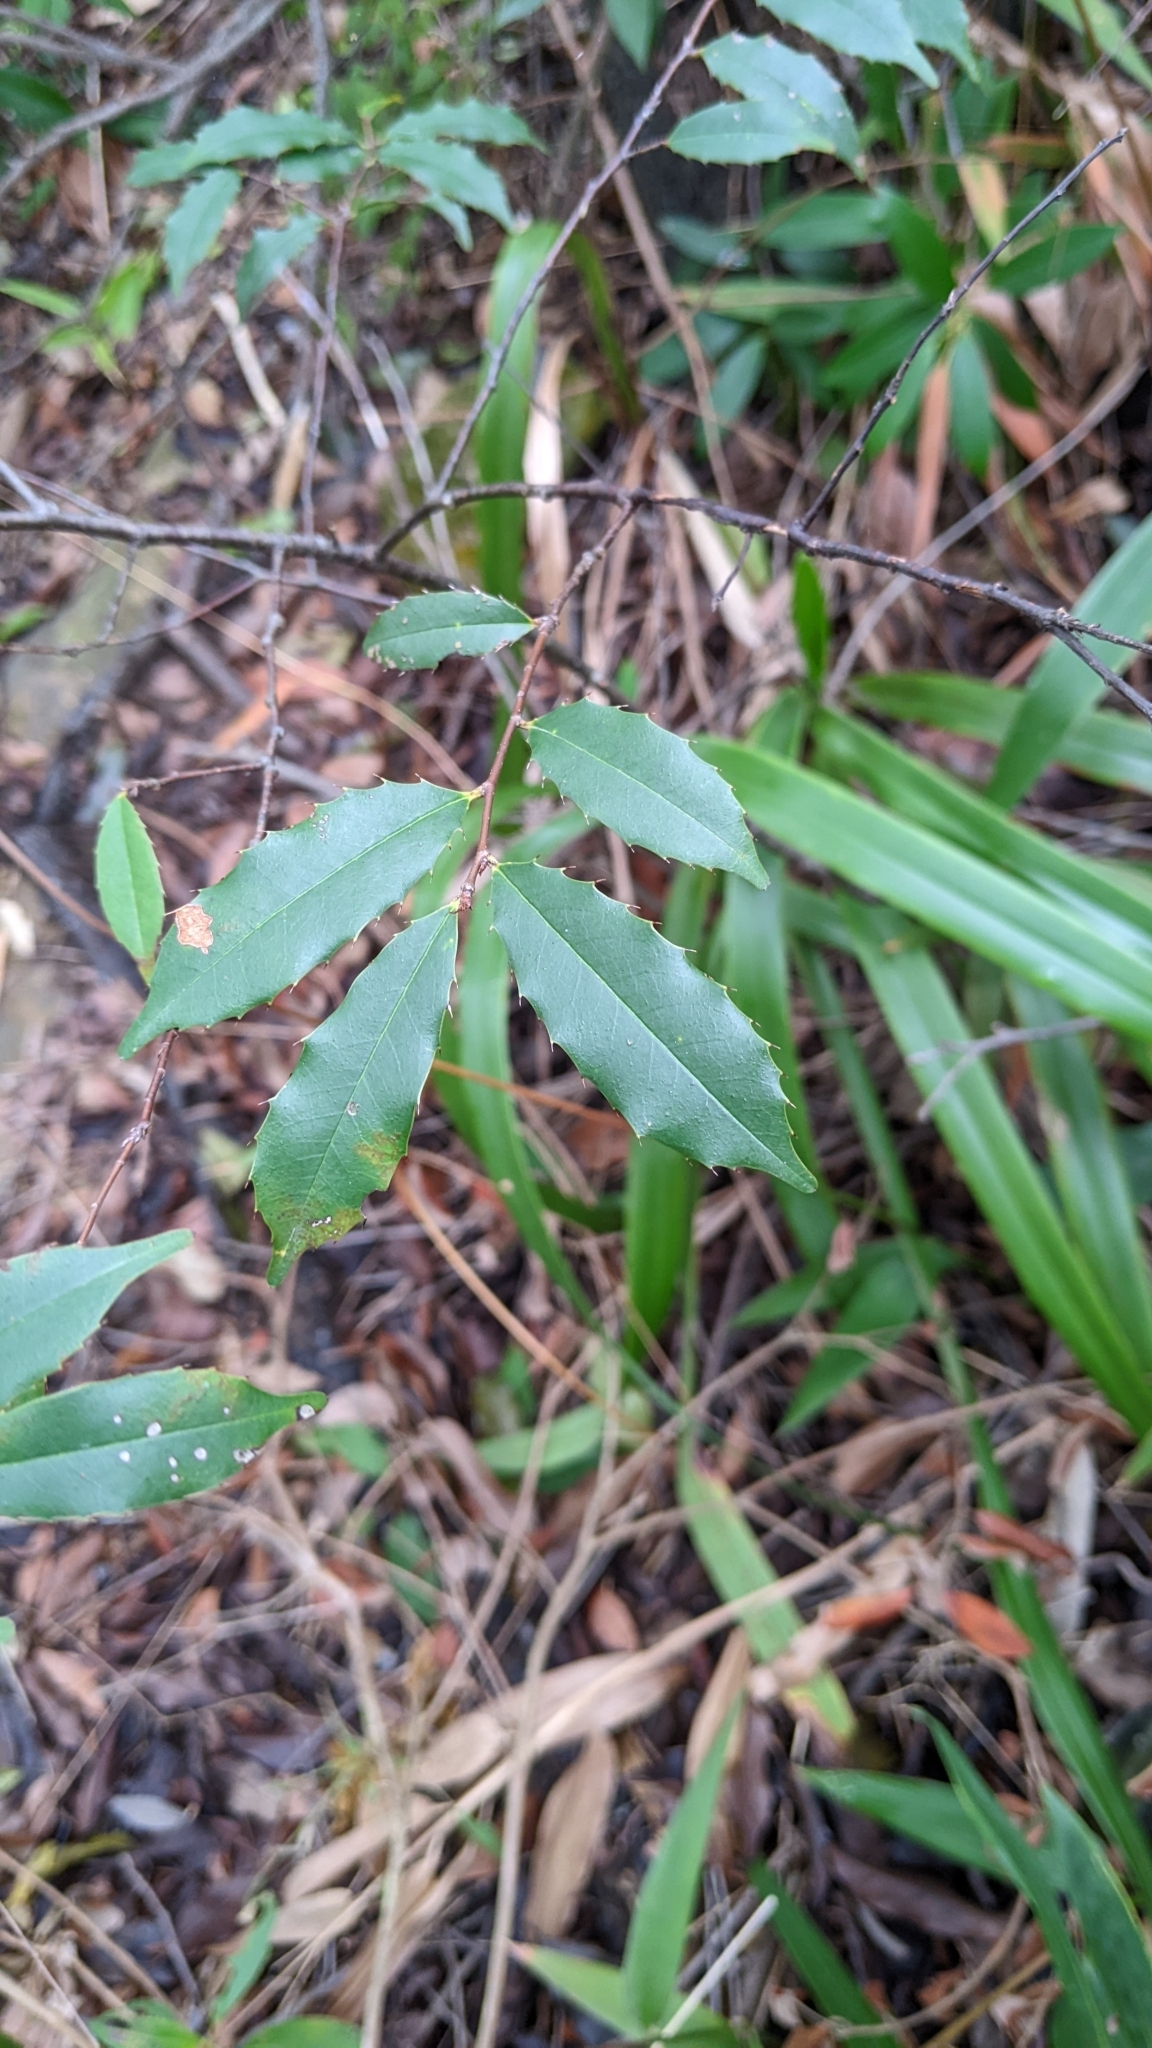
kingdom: Plantae
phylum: Tracheophyta
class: Magnoliopsida
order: Rosales
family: Rosaceae
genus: Prunus
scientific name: Prunus spinulosa
